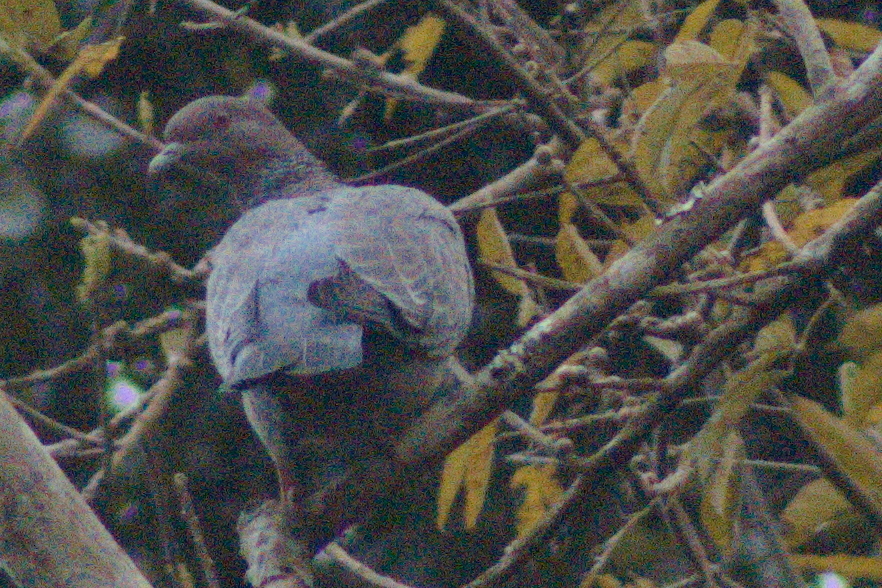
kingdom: Animalia
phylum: Chordata
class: Aves
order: Columbiformes
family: Columbidae
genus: Patagioenas
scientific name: Patagioenas picazuro
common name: Picazuro pigeon
